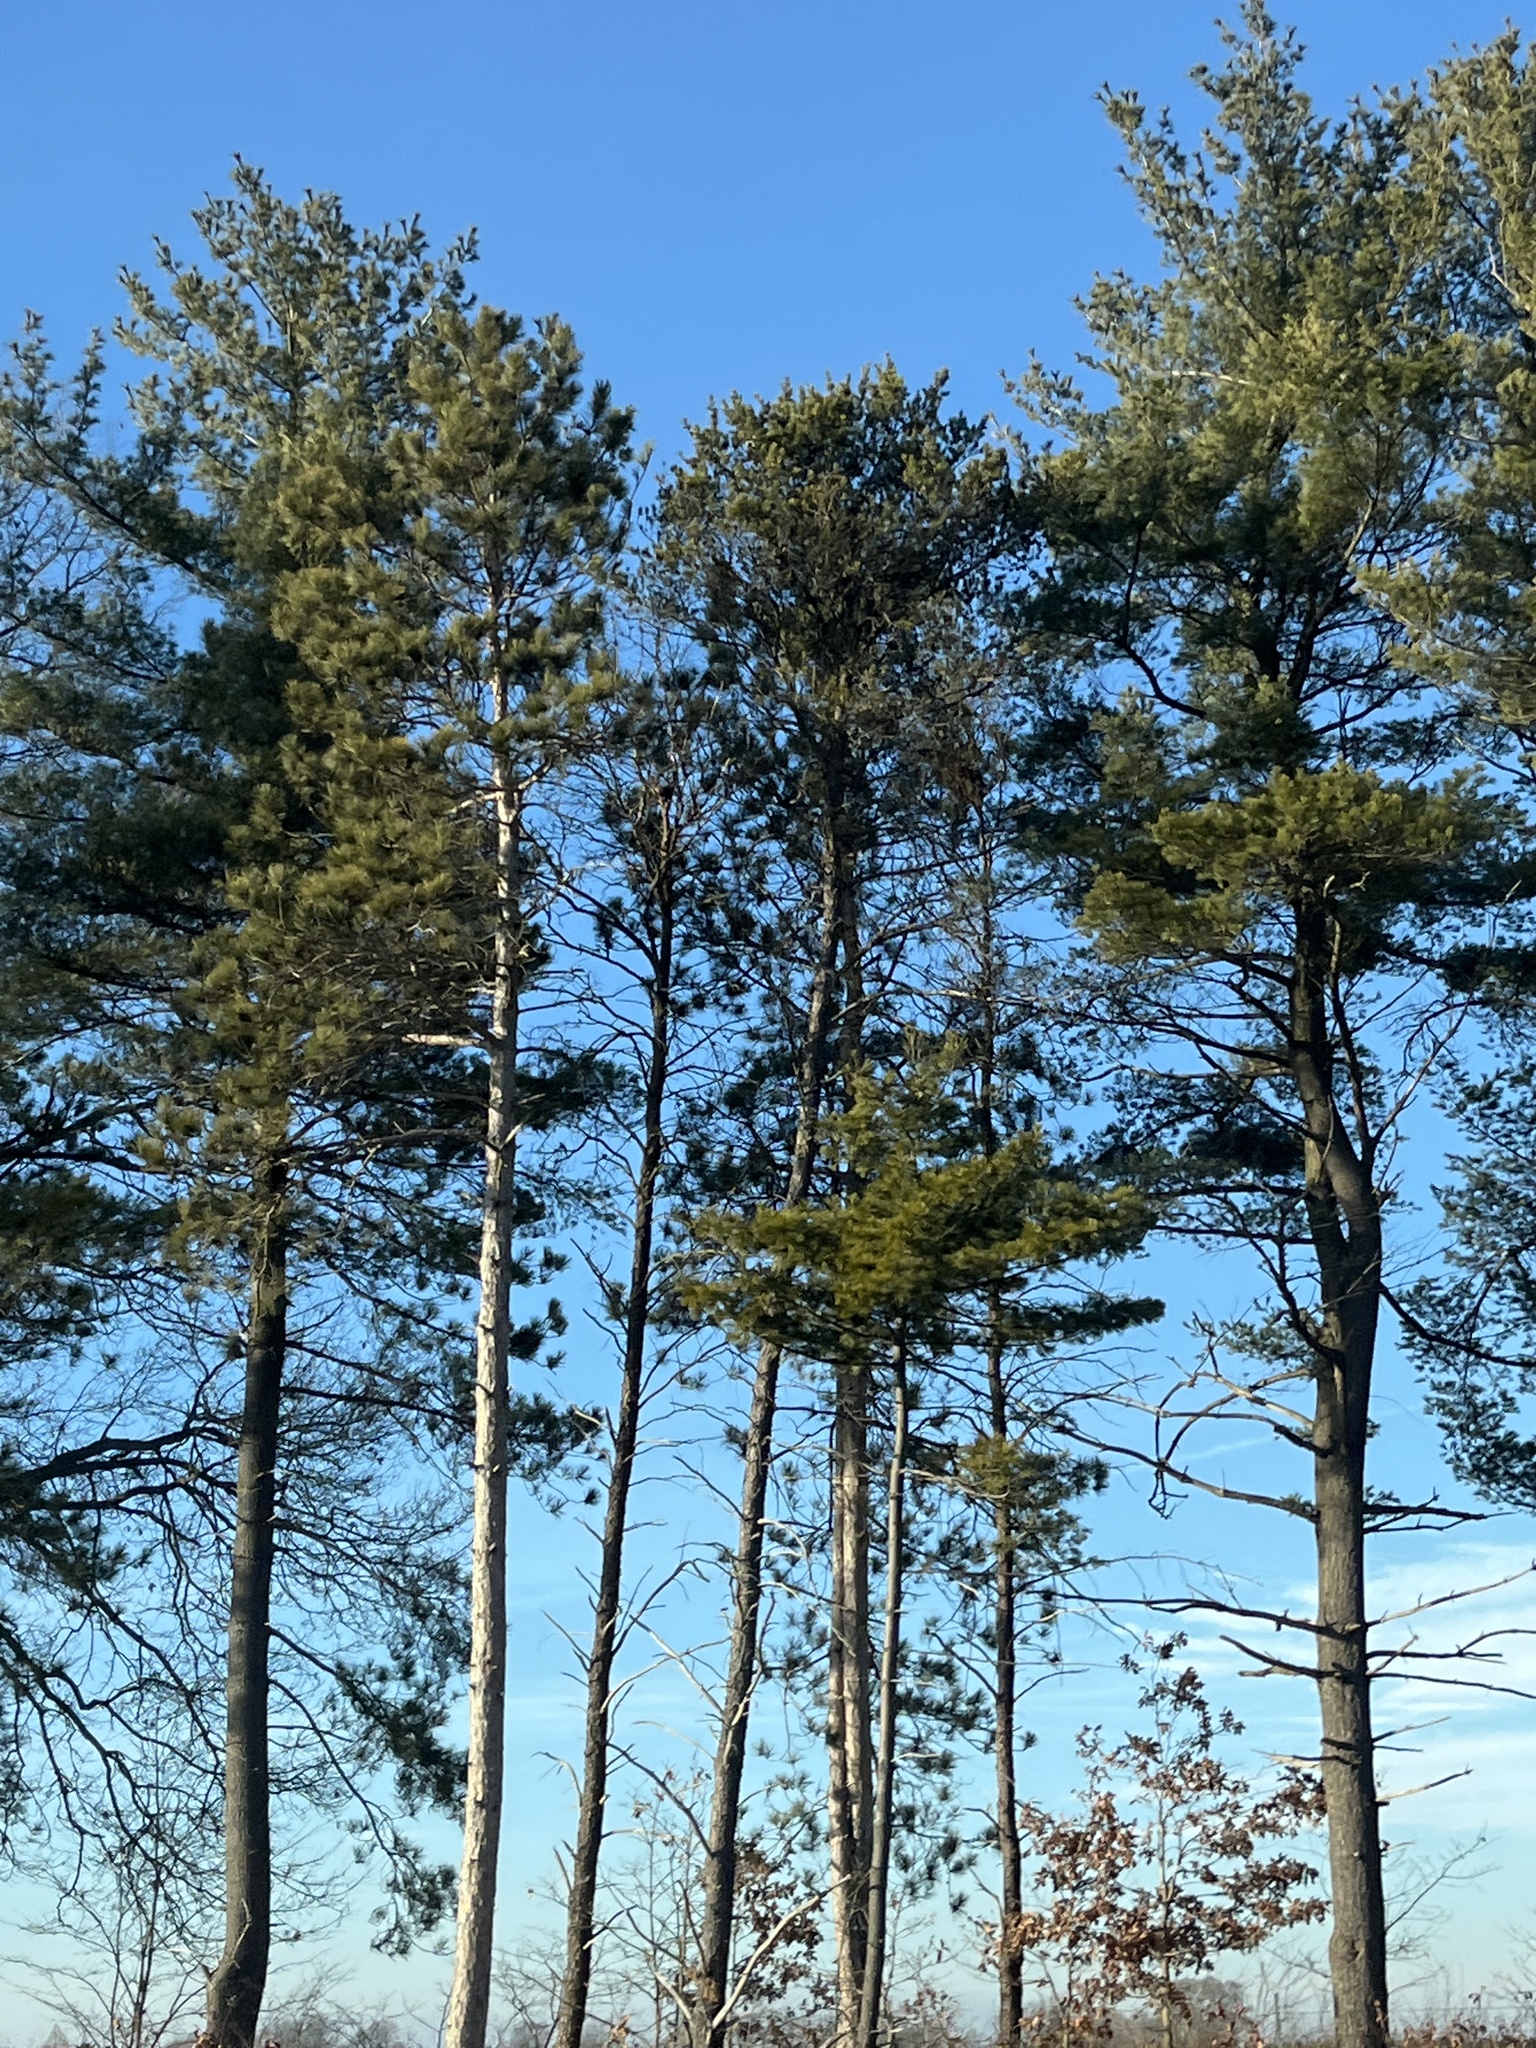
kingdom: Plantae
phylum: Tracheophyta
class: Pinopsida
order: Pinales
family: Pinaceae
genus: Pinus
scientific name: Pinus strobus
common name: Weymouth pine
